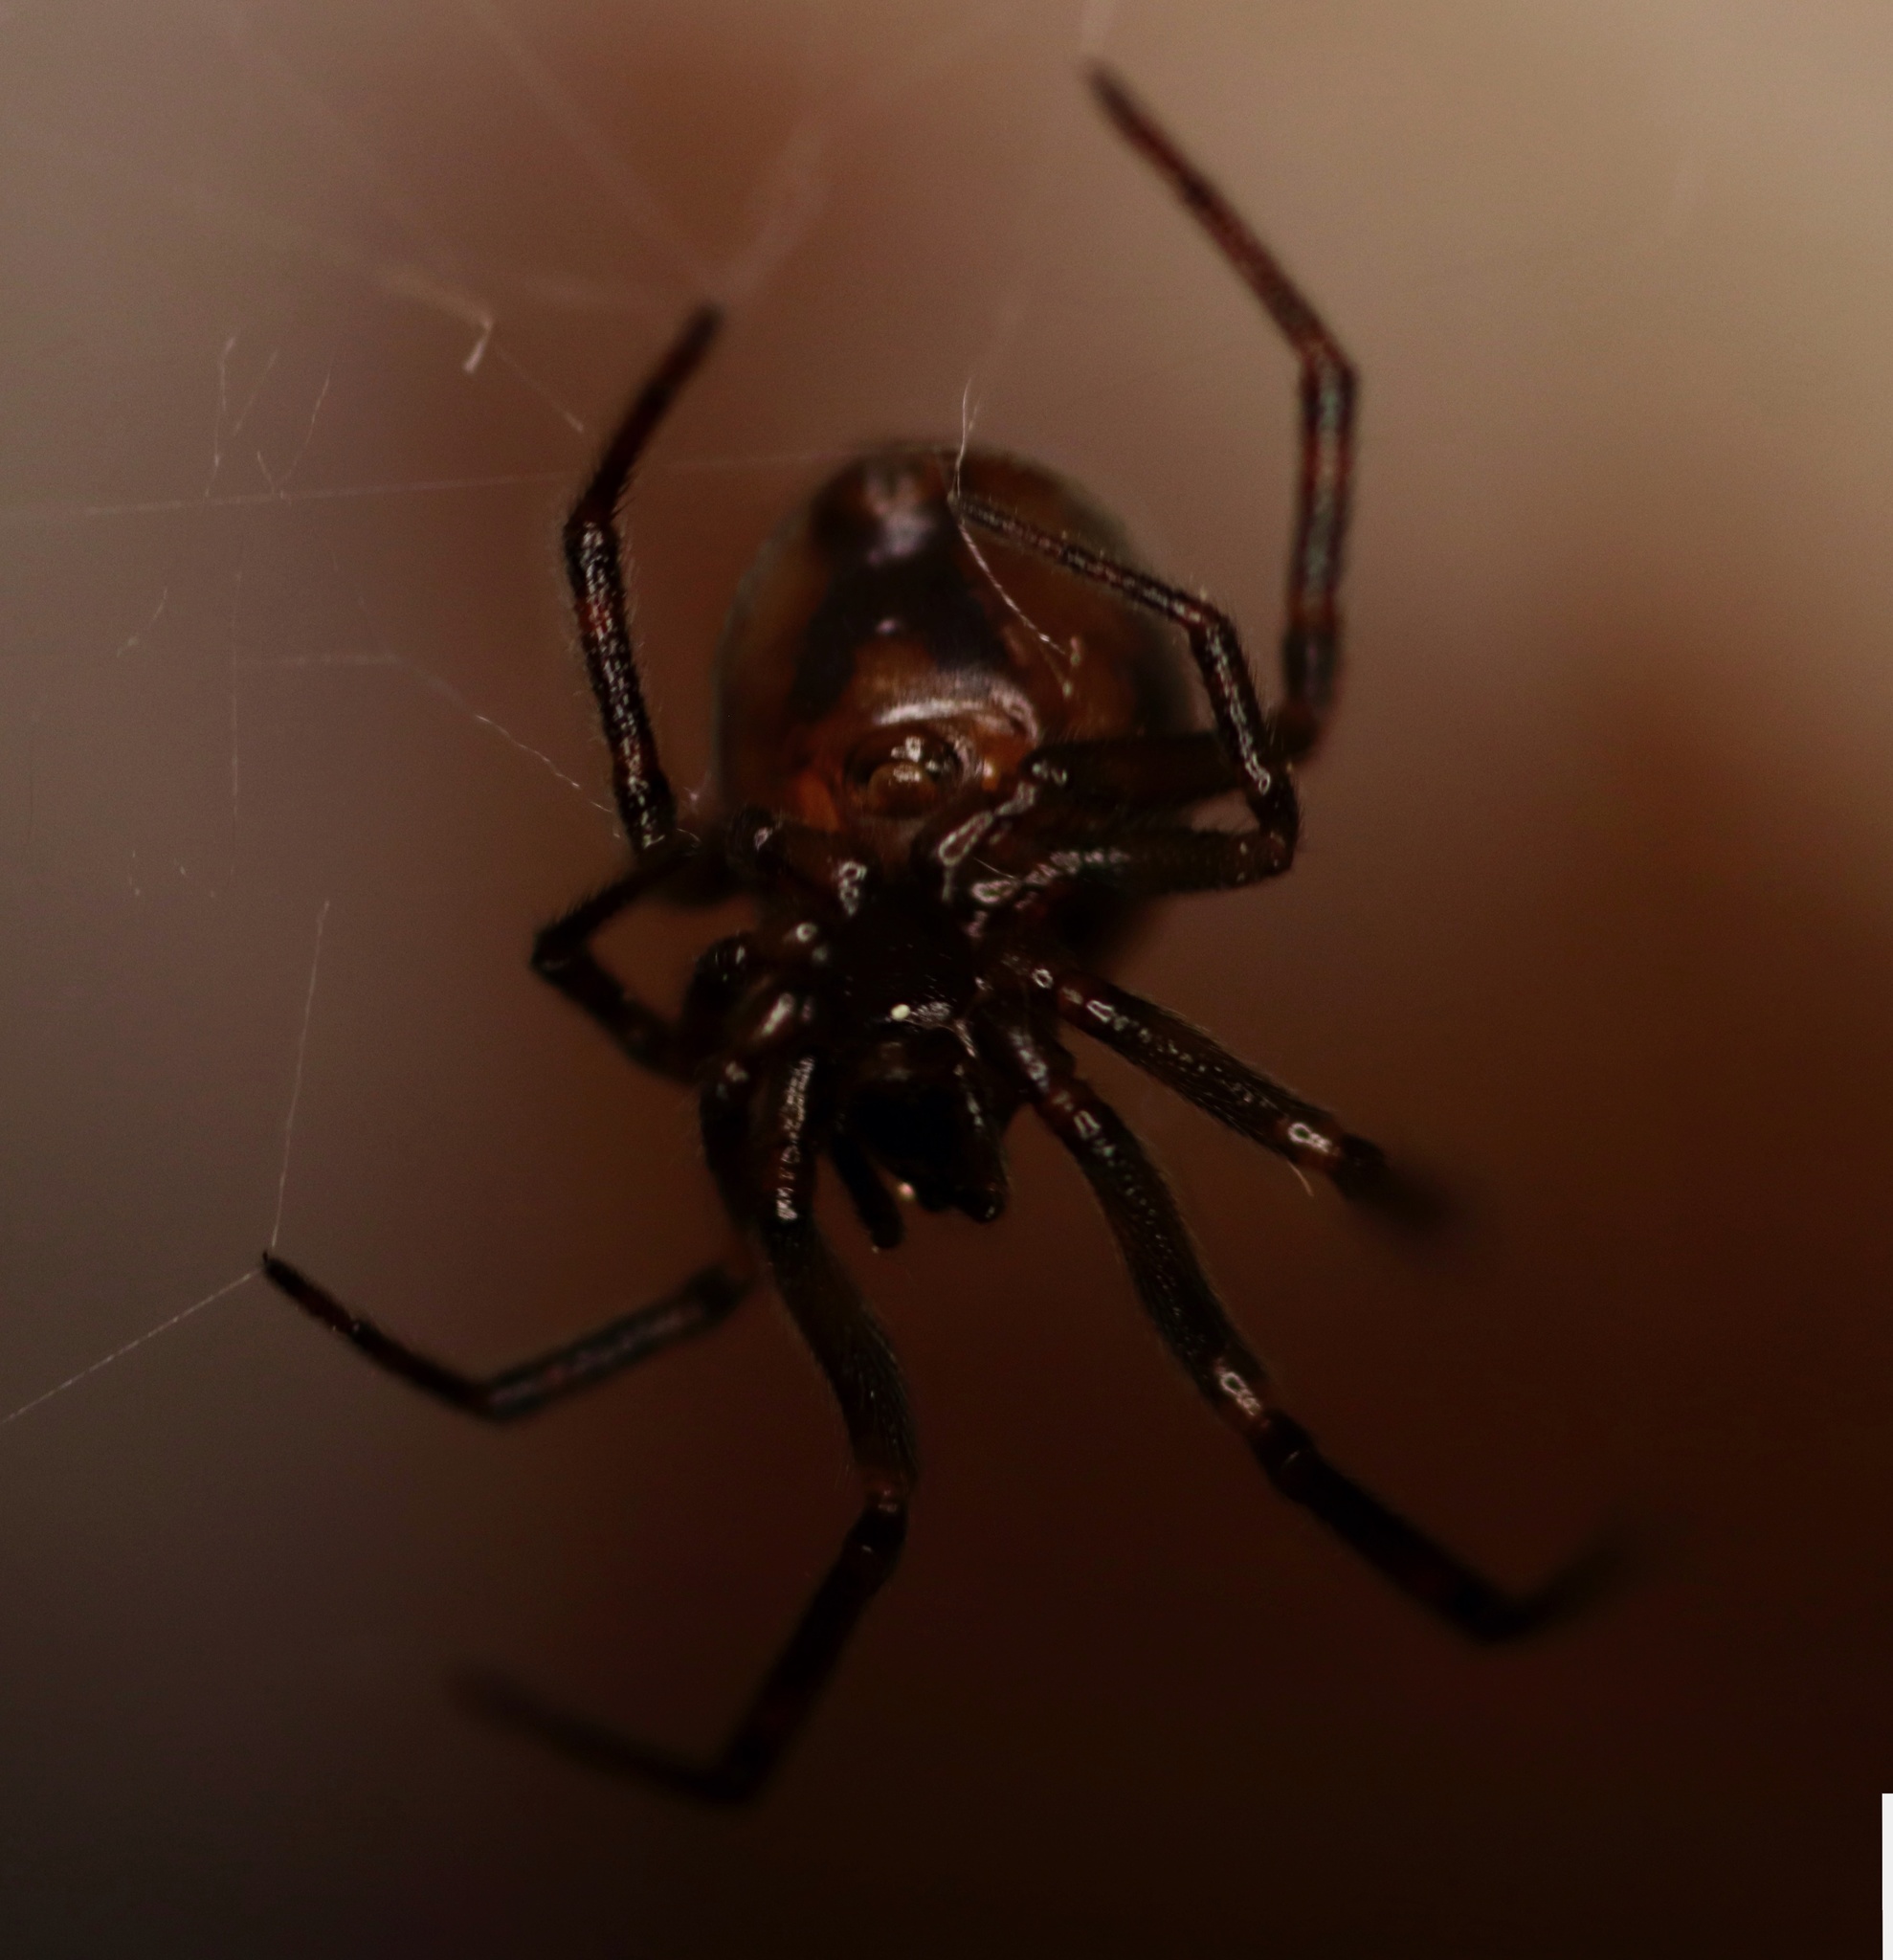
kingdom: Animalia
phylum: Arthropoda
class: Arachnida
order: Araneae
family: Theridiidae
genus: Steatoda
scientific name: Steatoda borealis
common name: Boreal combfoot
